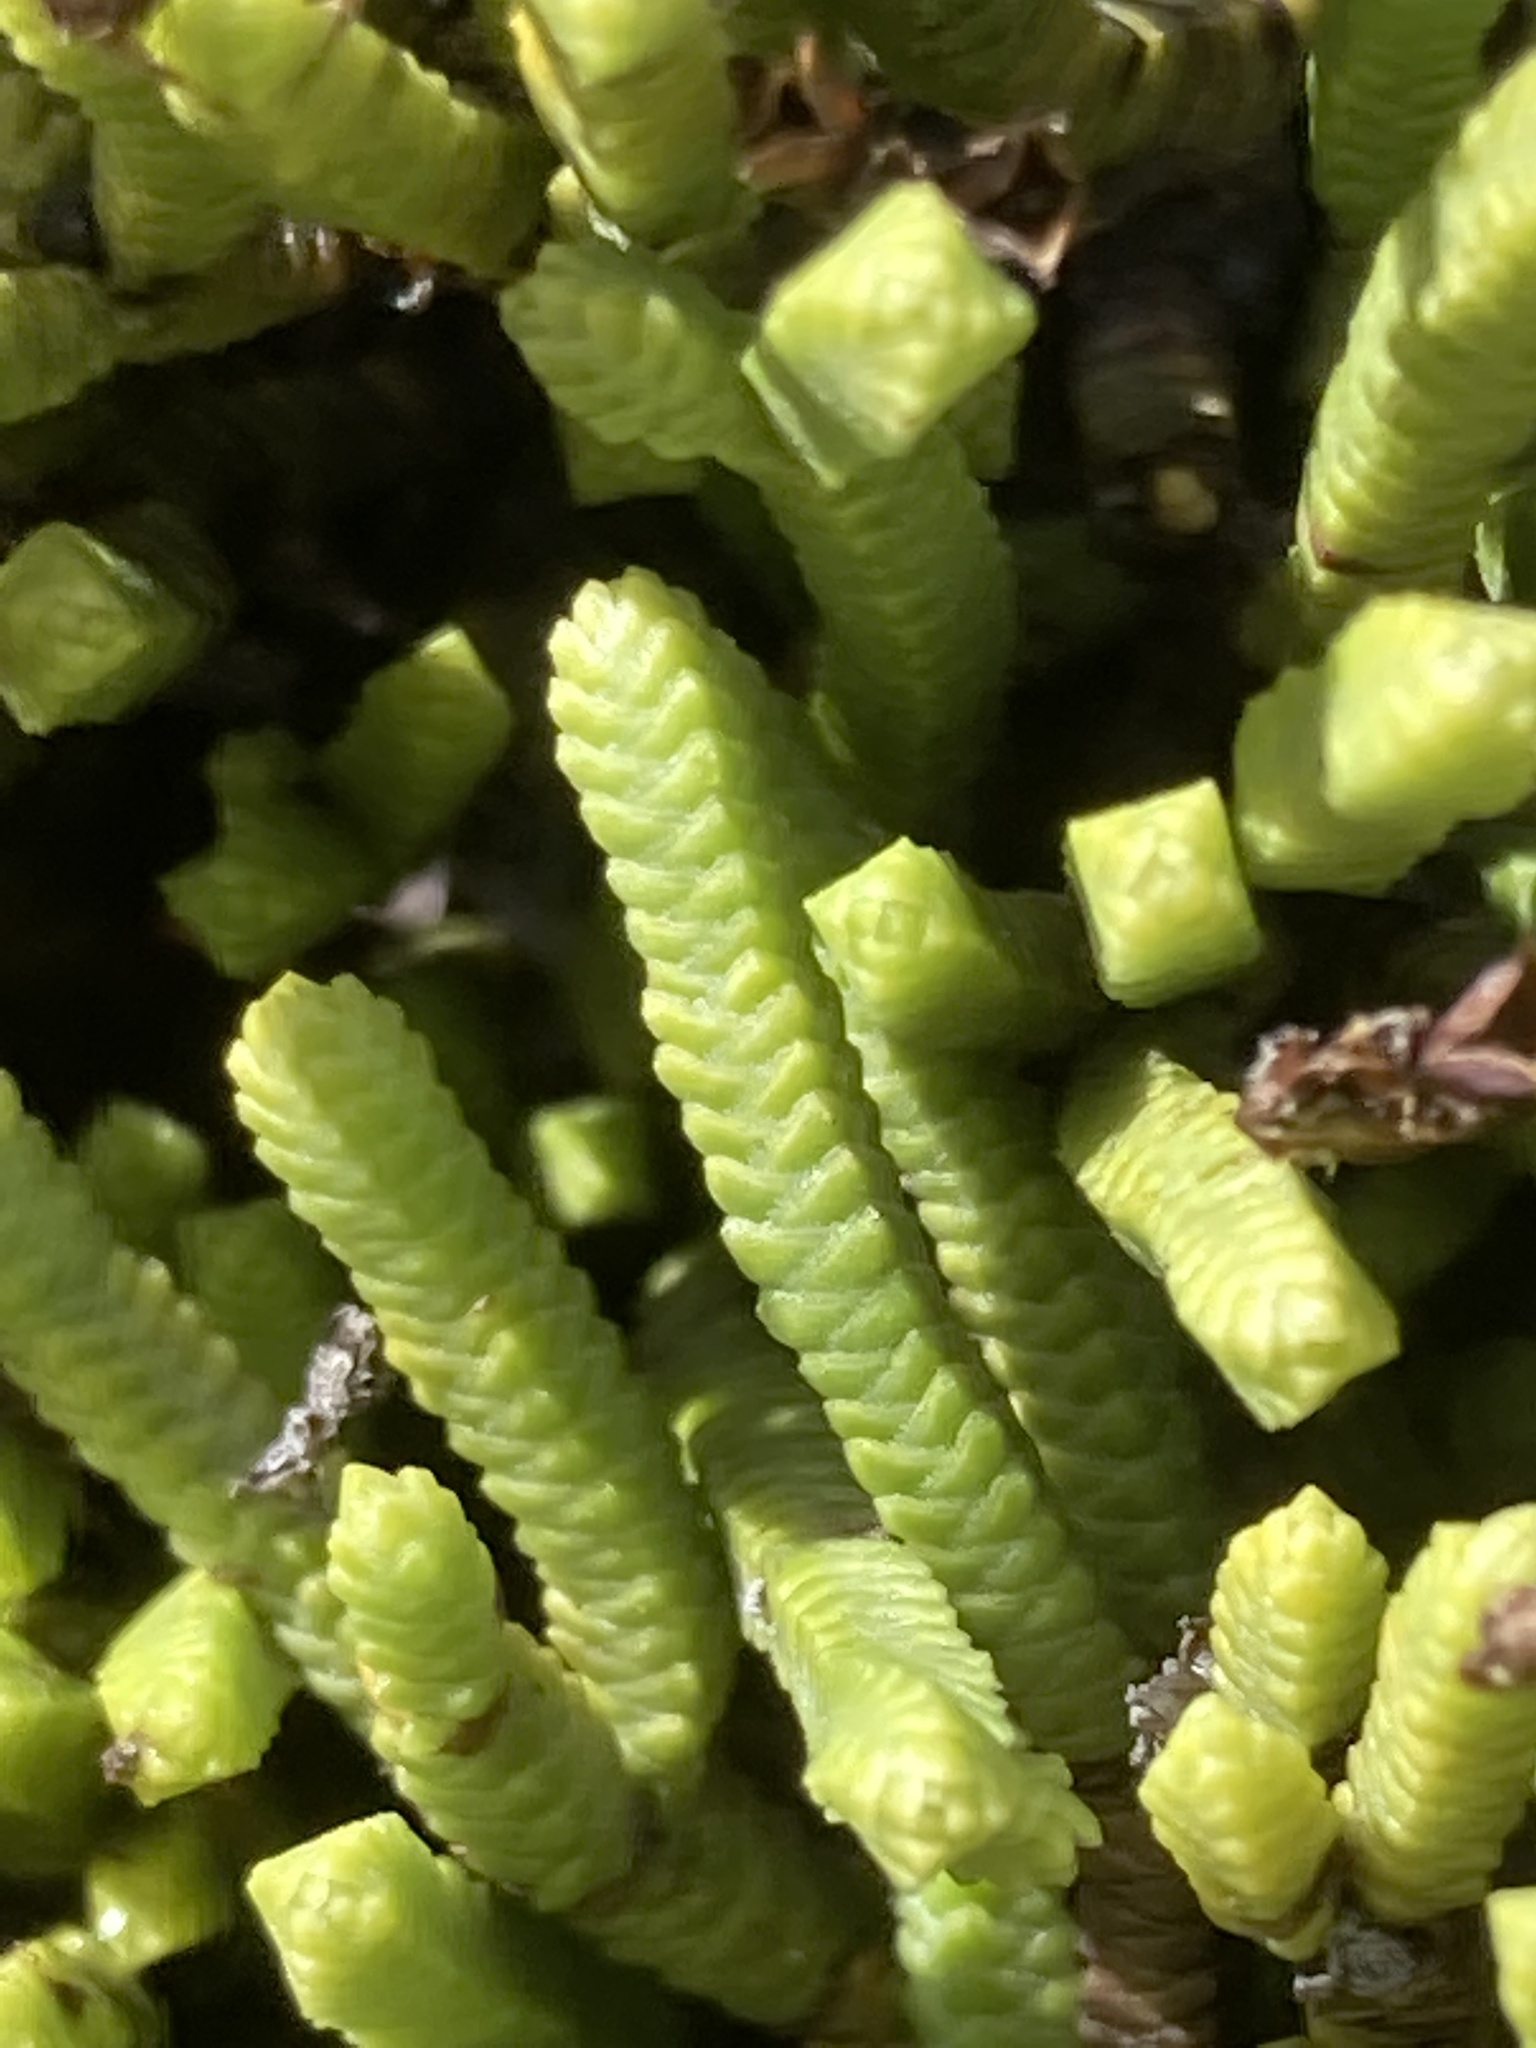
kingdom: Plantae
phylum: Tracheophyta
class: Magnoliopsida
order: Lamiales
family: Plantaginaceae
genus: Veronica
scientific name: Veronica tetrasticha
